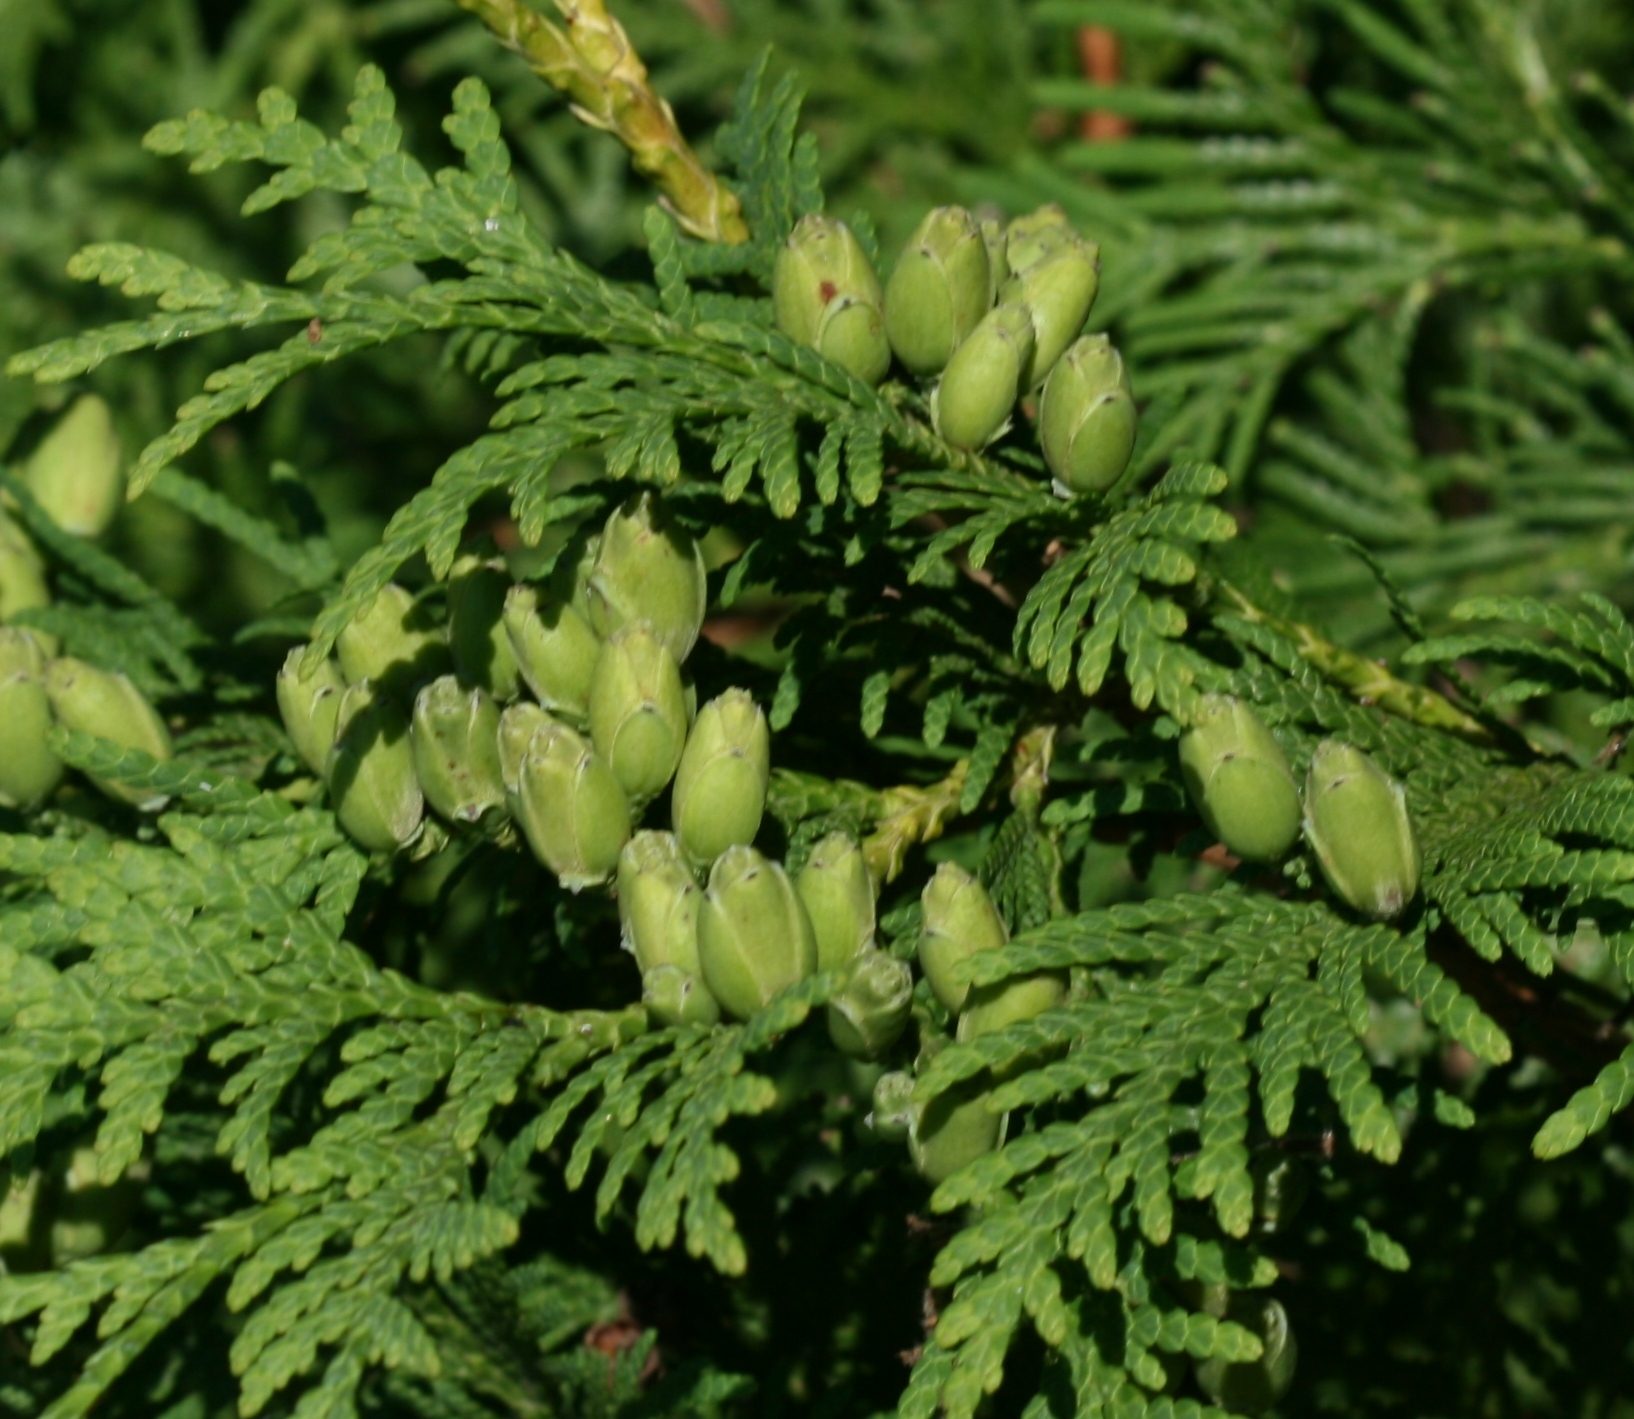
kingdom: Plantae
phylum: Tracheophyta
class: Pinopsida
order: Pinales
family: Cupressaceae
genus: Thuja
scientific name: Thuja occidentalis
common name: Northern white-cedar
